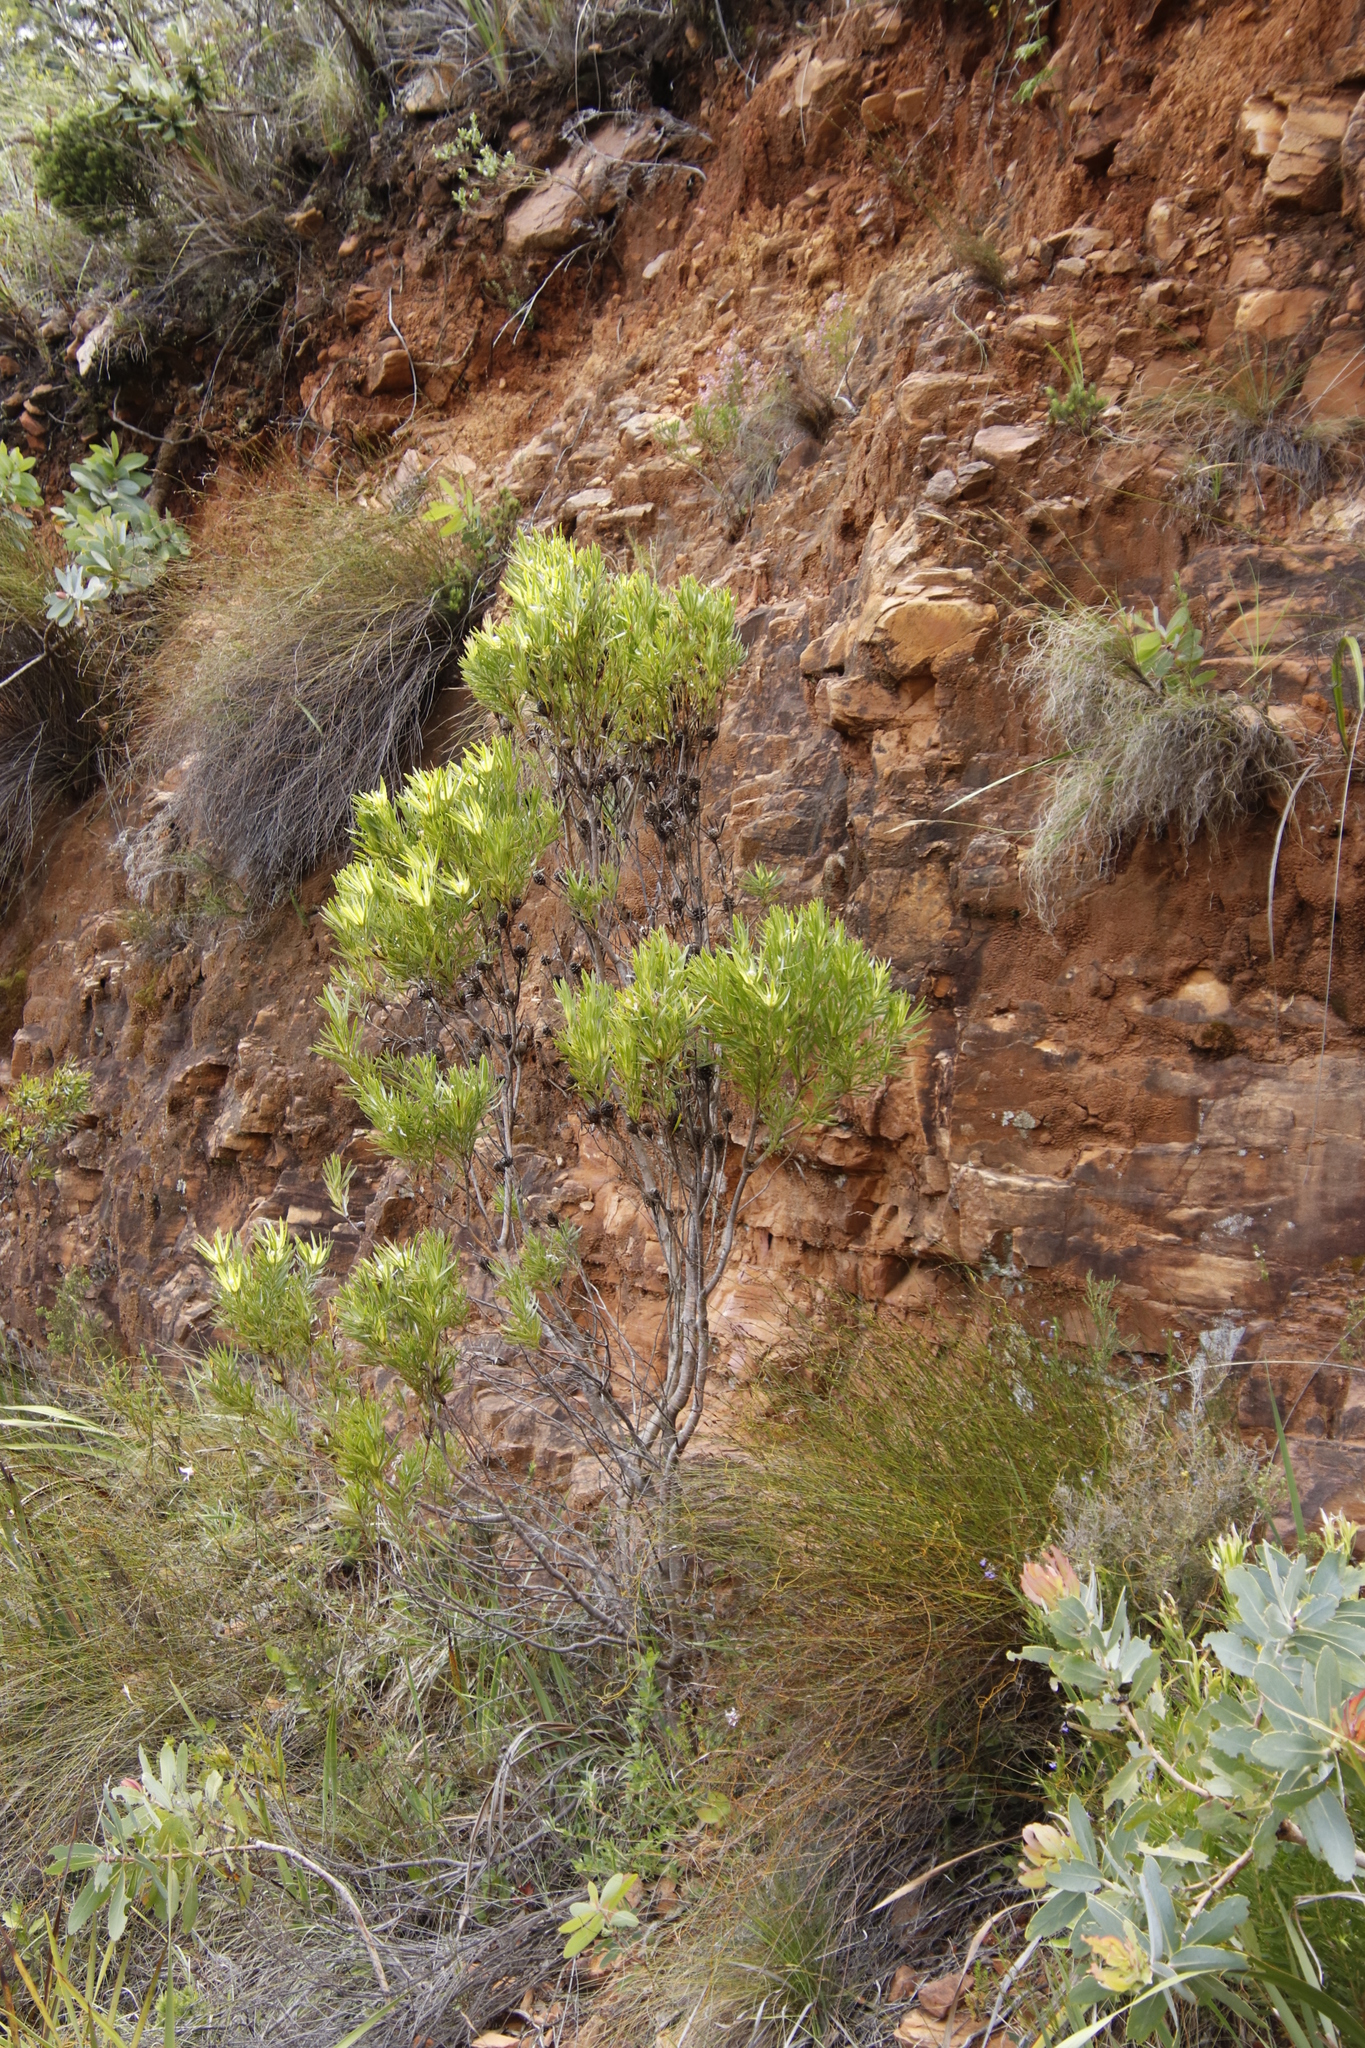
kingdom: Plantae
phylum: Tracheophyta
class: Magnoliopsida
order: Proteales
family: Proteaceae
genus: Leucadendron
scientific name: Leucadendron xanthoconus
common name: Sickle-leaf conebush
